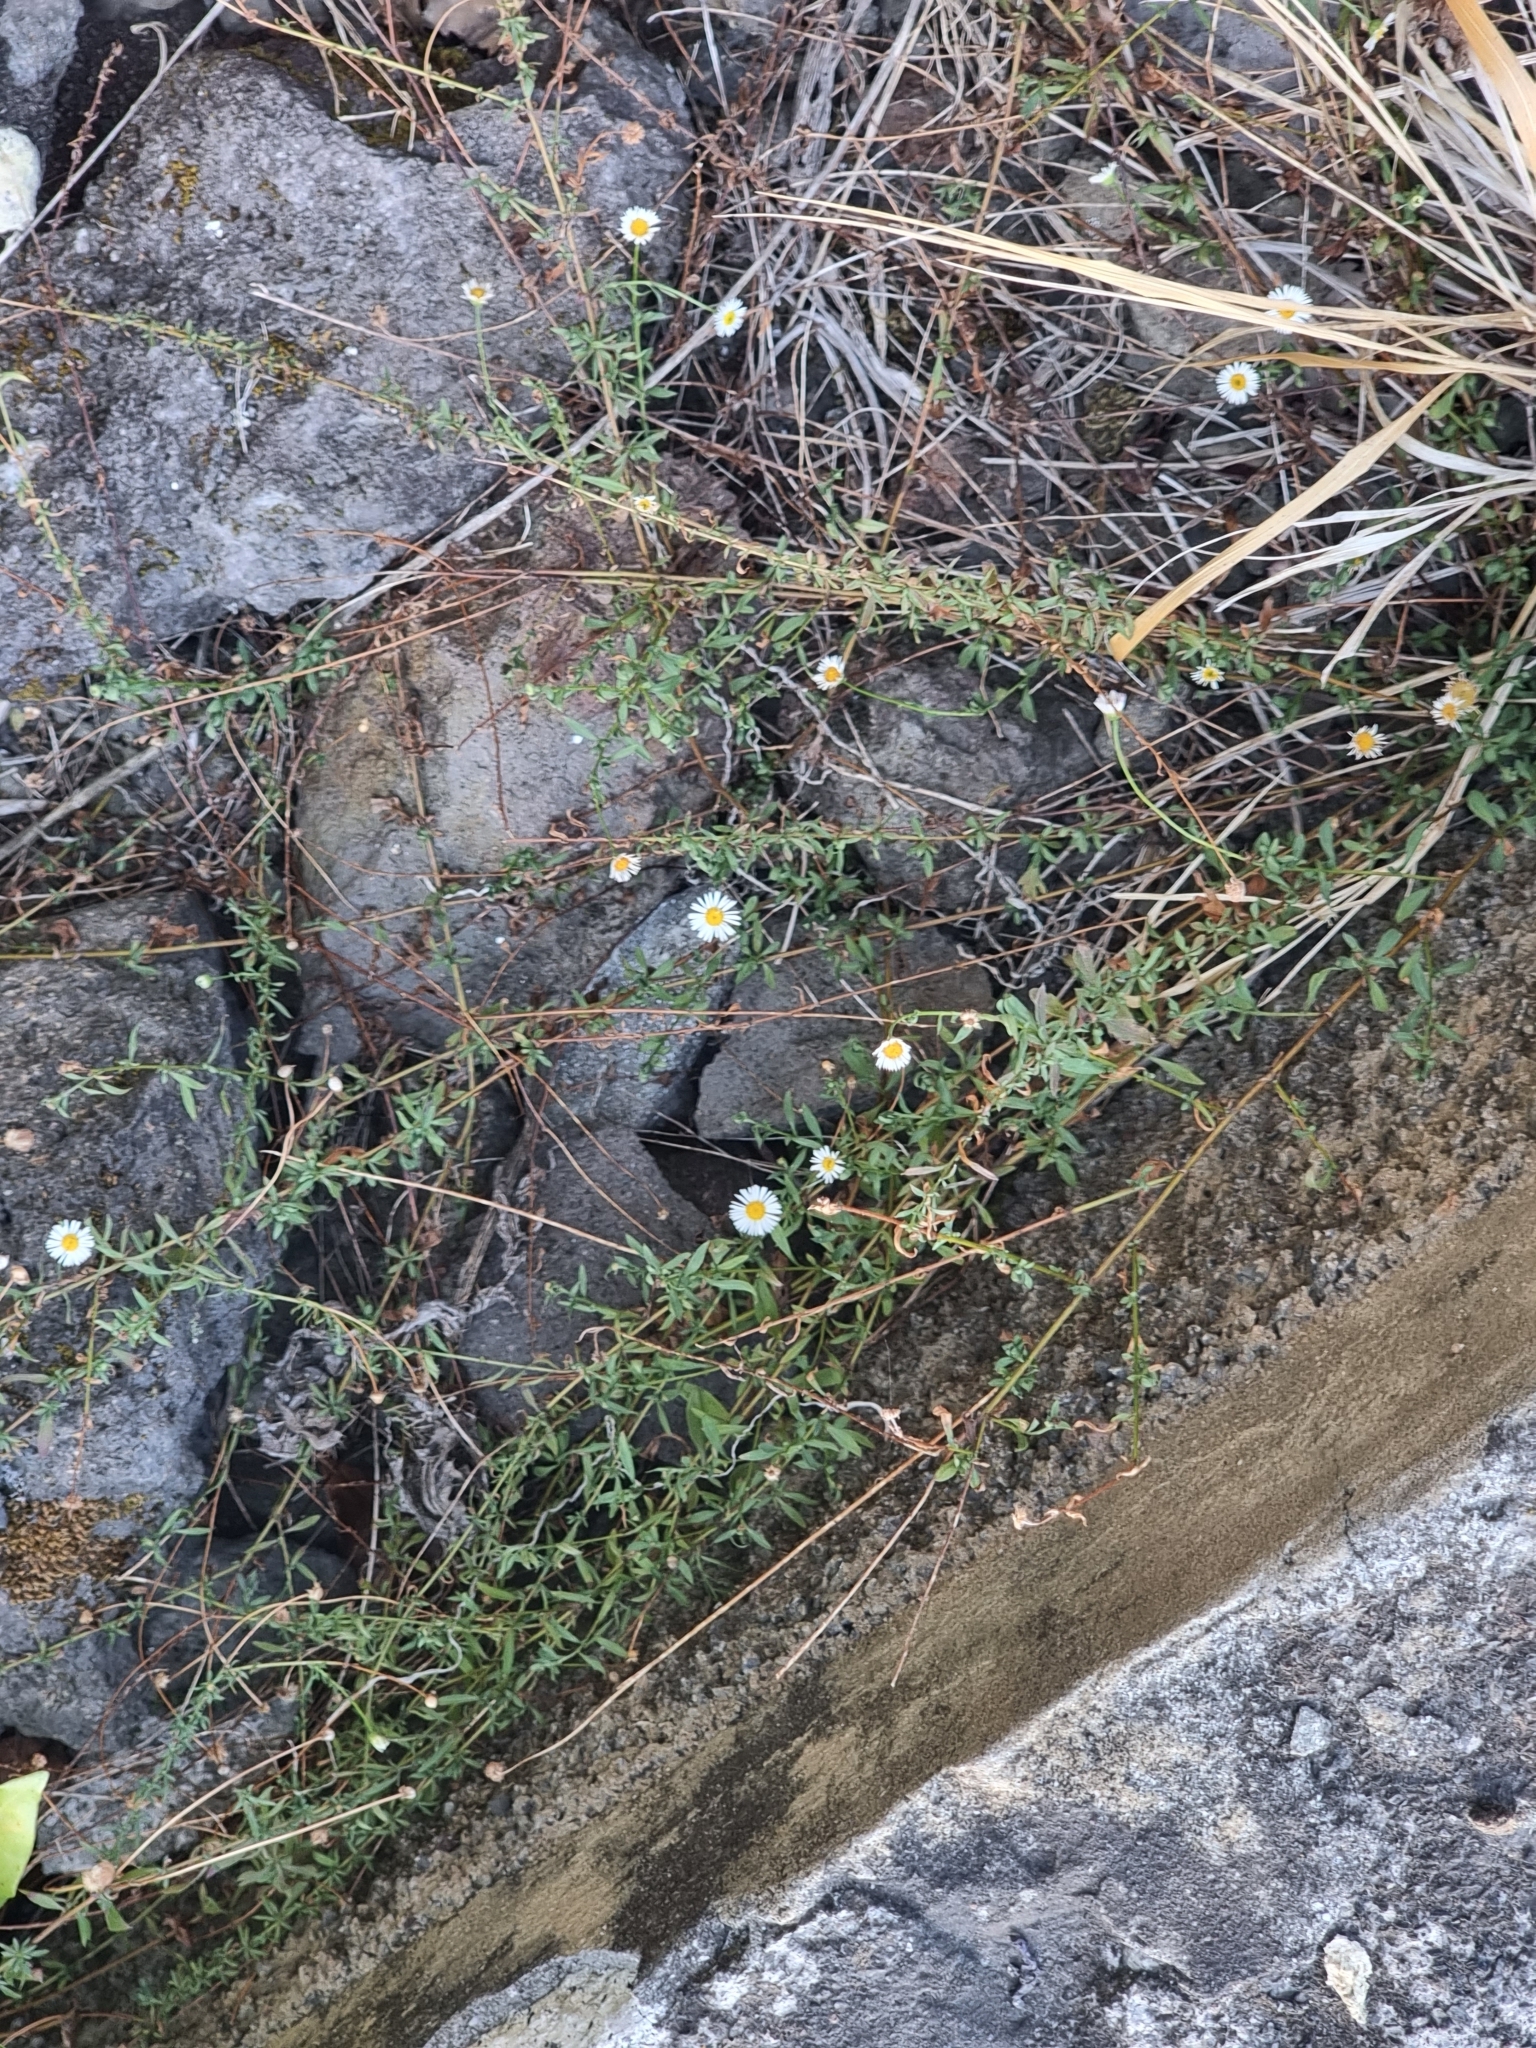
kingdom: Plantae
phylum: Tracheophyta
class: Magnoliopsida
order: Asterales
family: Asteraceae
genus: Erigeron
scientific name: Erigeron karvinskianus
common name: Mexican fleabane
